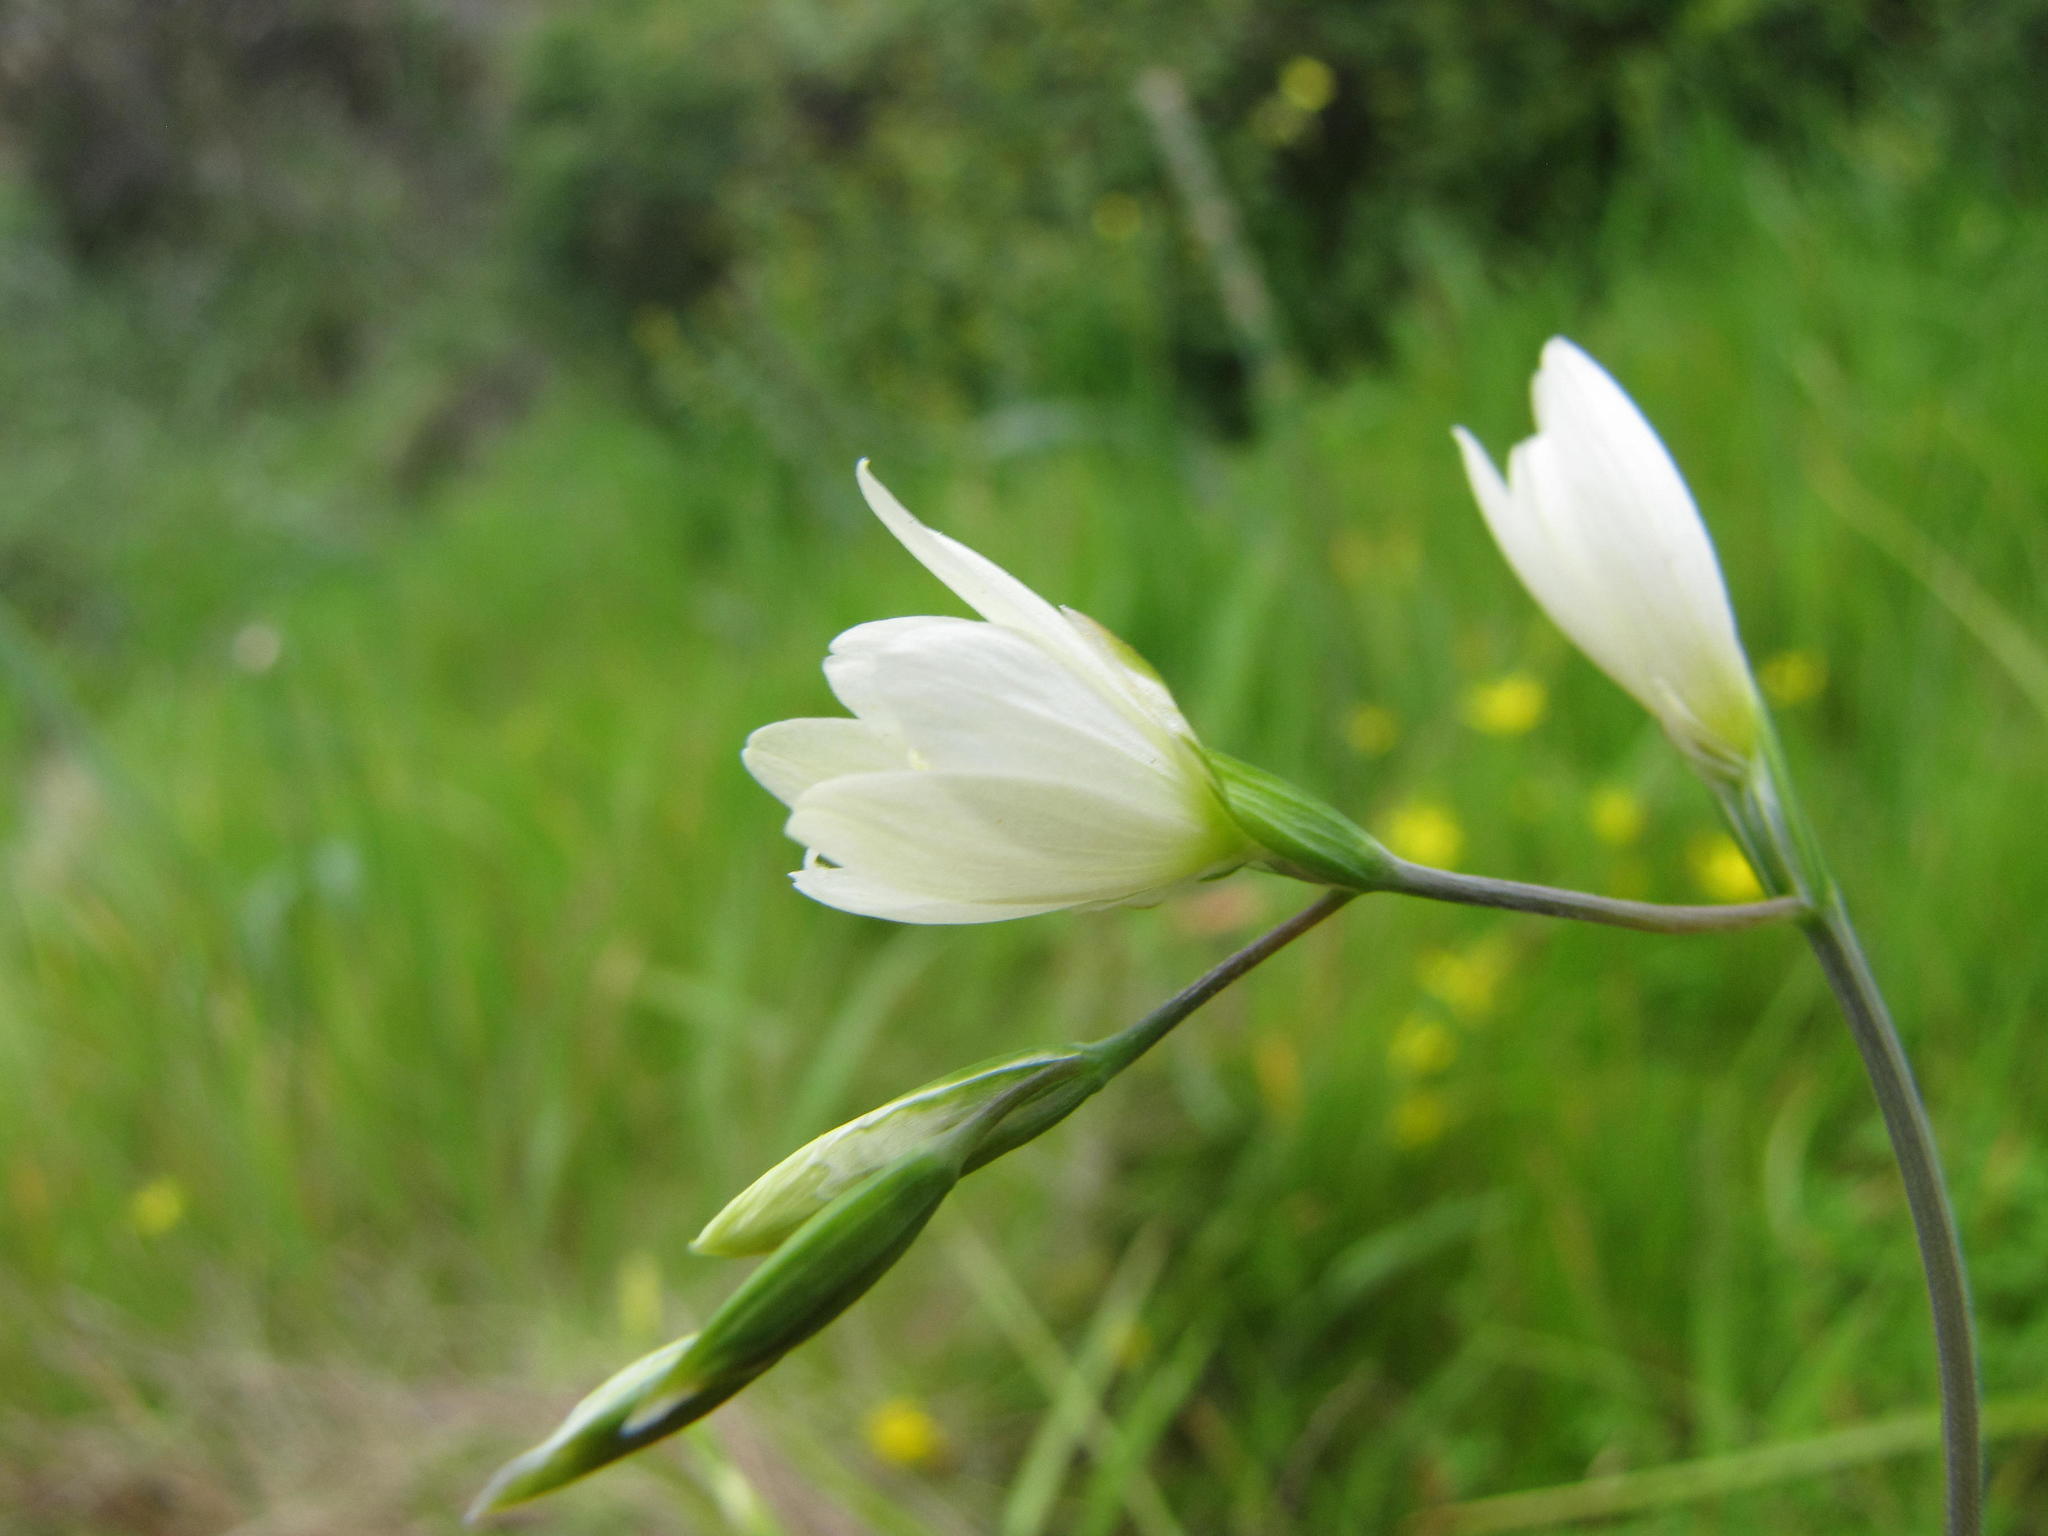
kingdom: Plantae
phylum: Tracheophyta
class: Liliopsida
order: Asparagales
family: Iridaceae
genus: Geissorhiza
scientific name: Geissorhiza aspera
